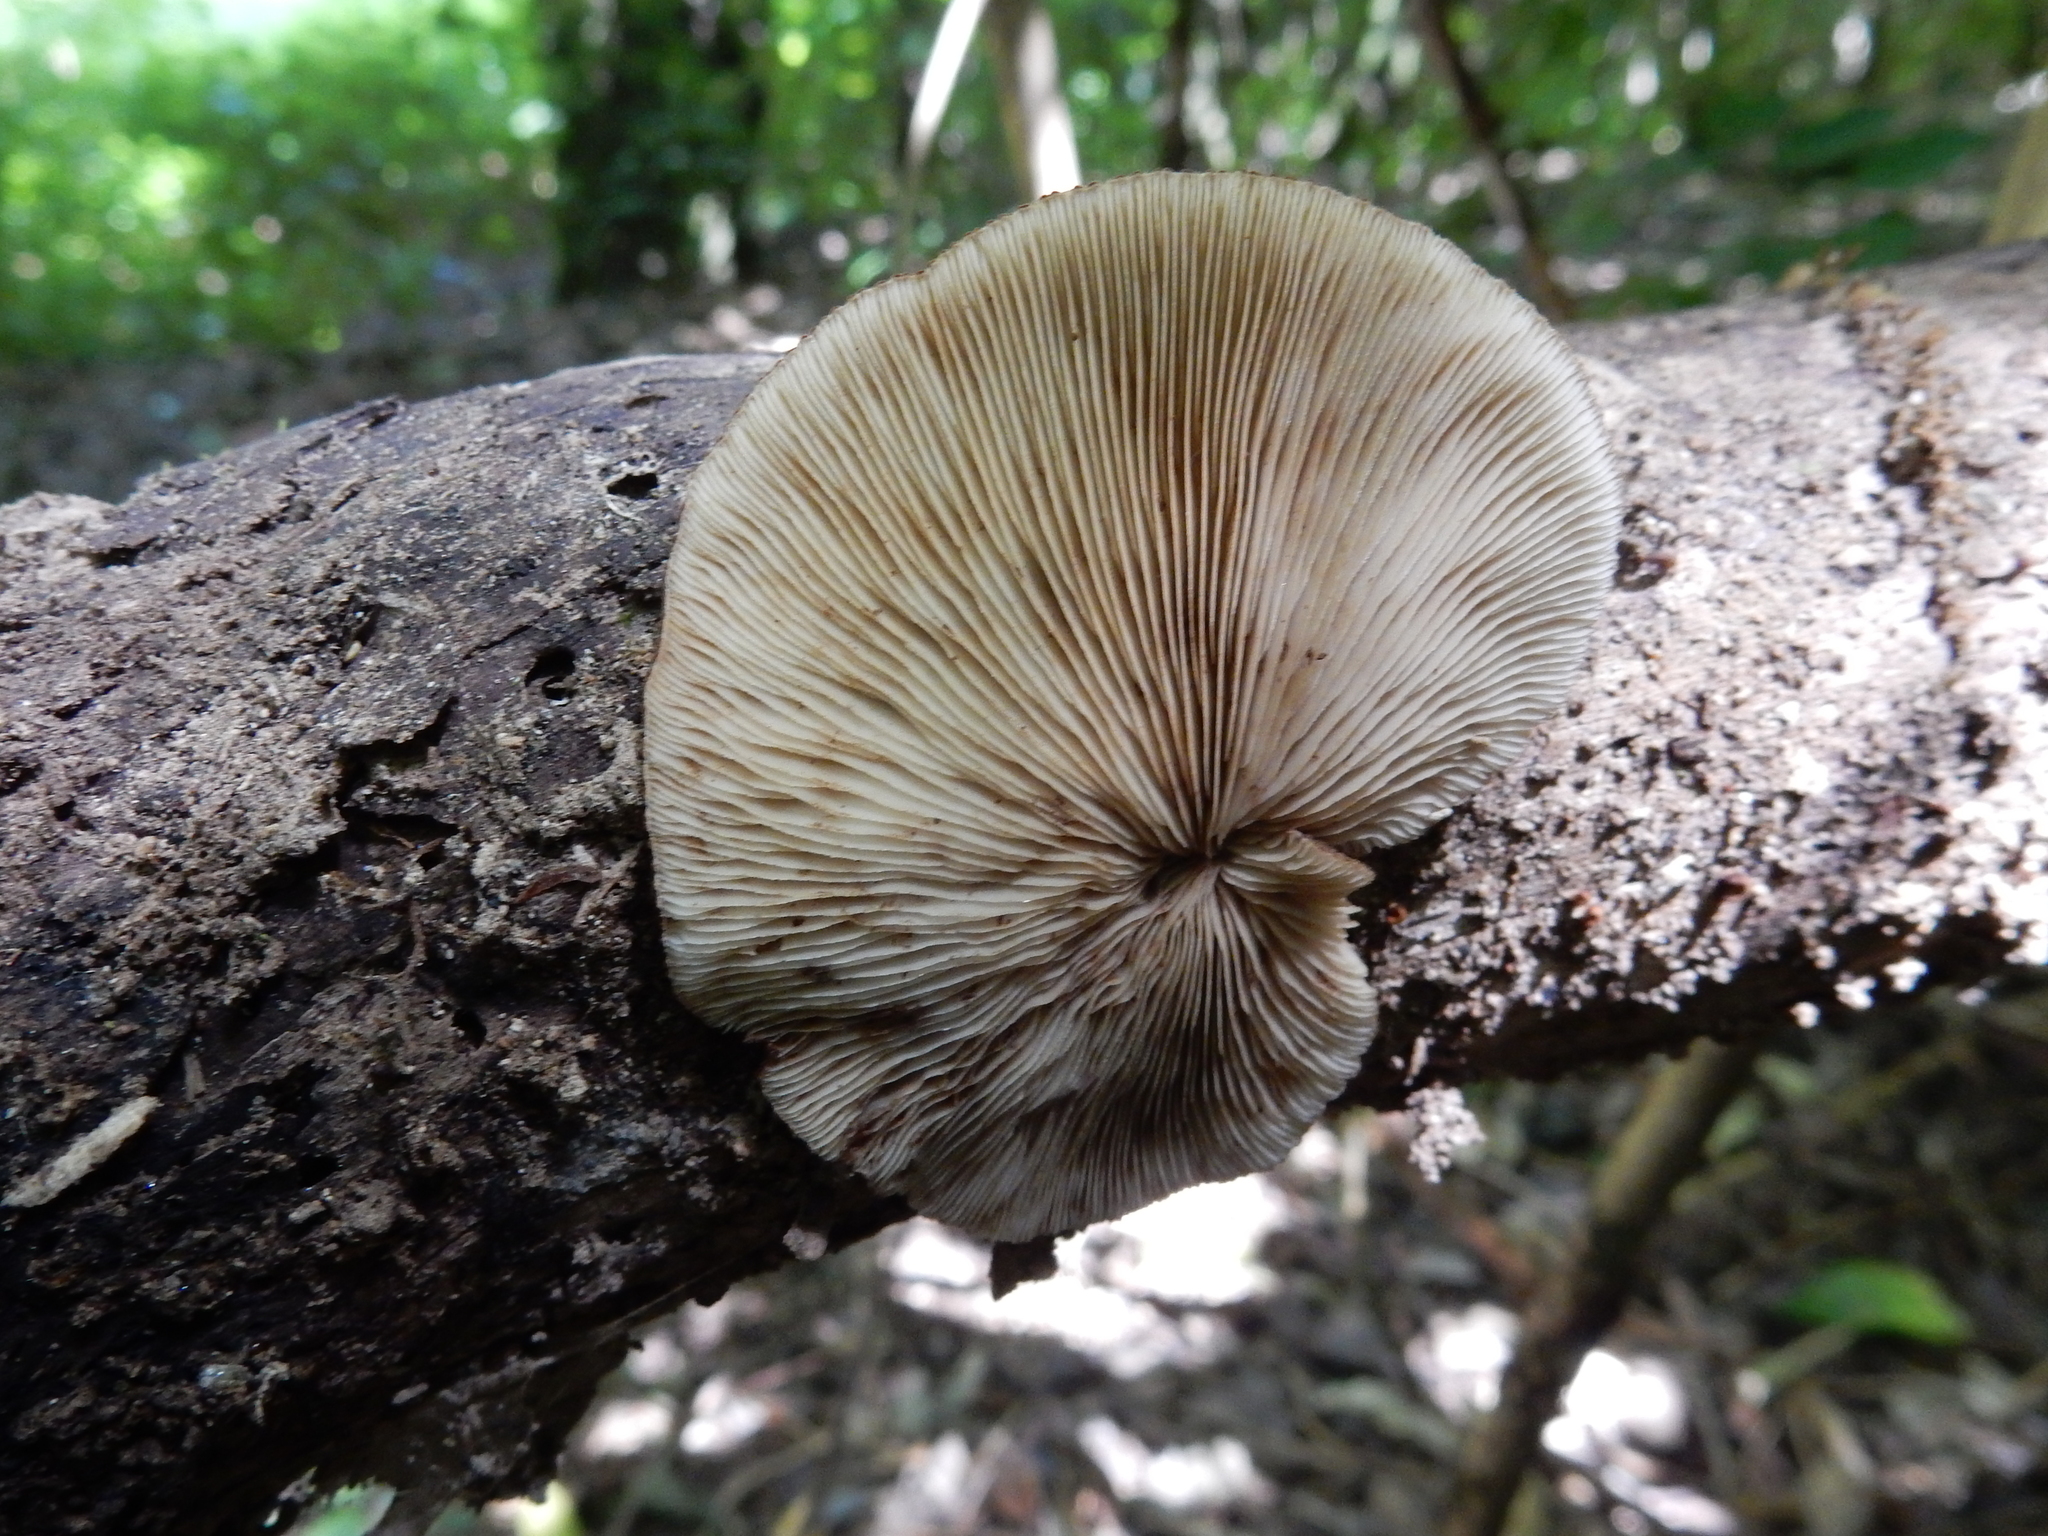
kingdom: Fungi
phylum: Basidiomycota
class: Agaricomycetes
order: Agaricales
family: Crepidotaceae
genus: Crepidotus
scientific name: Crepidotus fuscovelutinus
